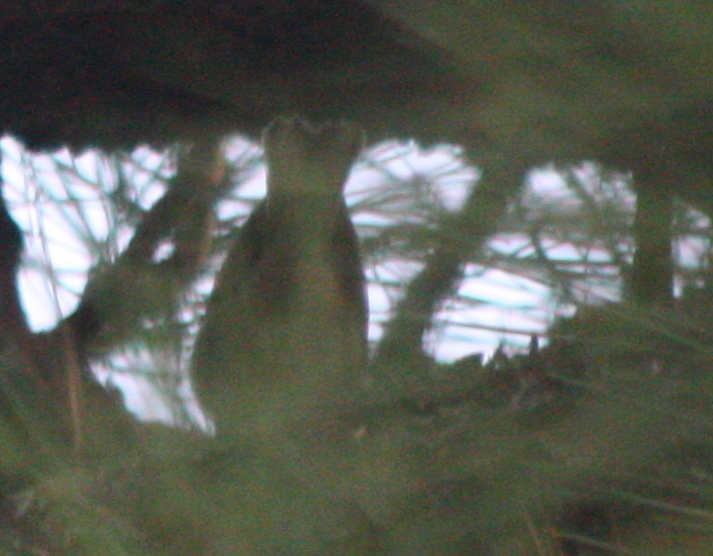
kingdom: Animalia
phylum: Chordata
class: Aves
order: Passeriformes
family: Parulidae
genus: Setophaga
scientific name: Setophaga
